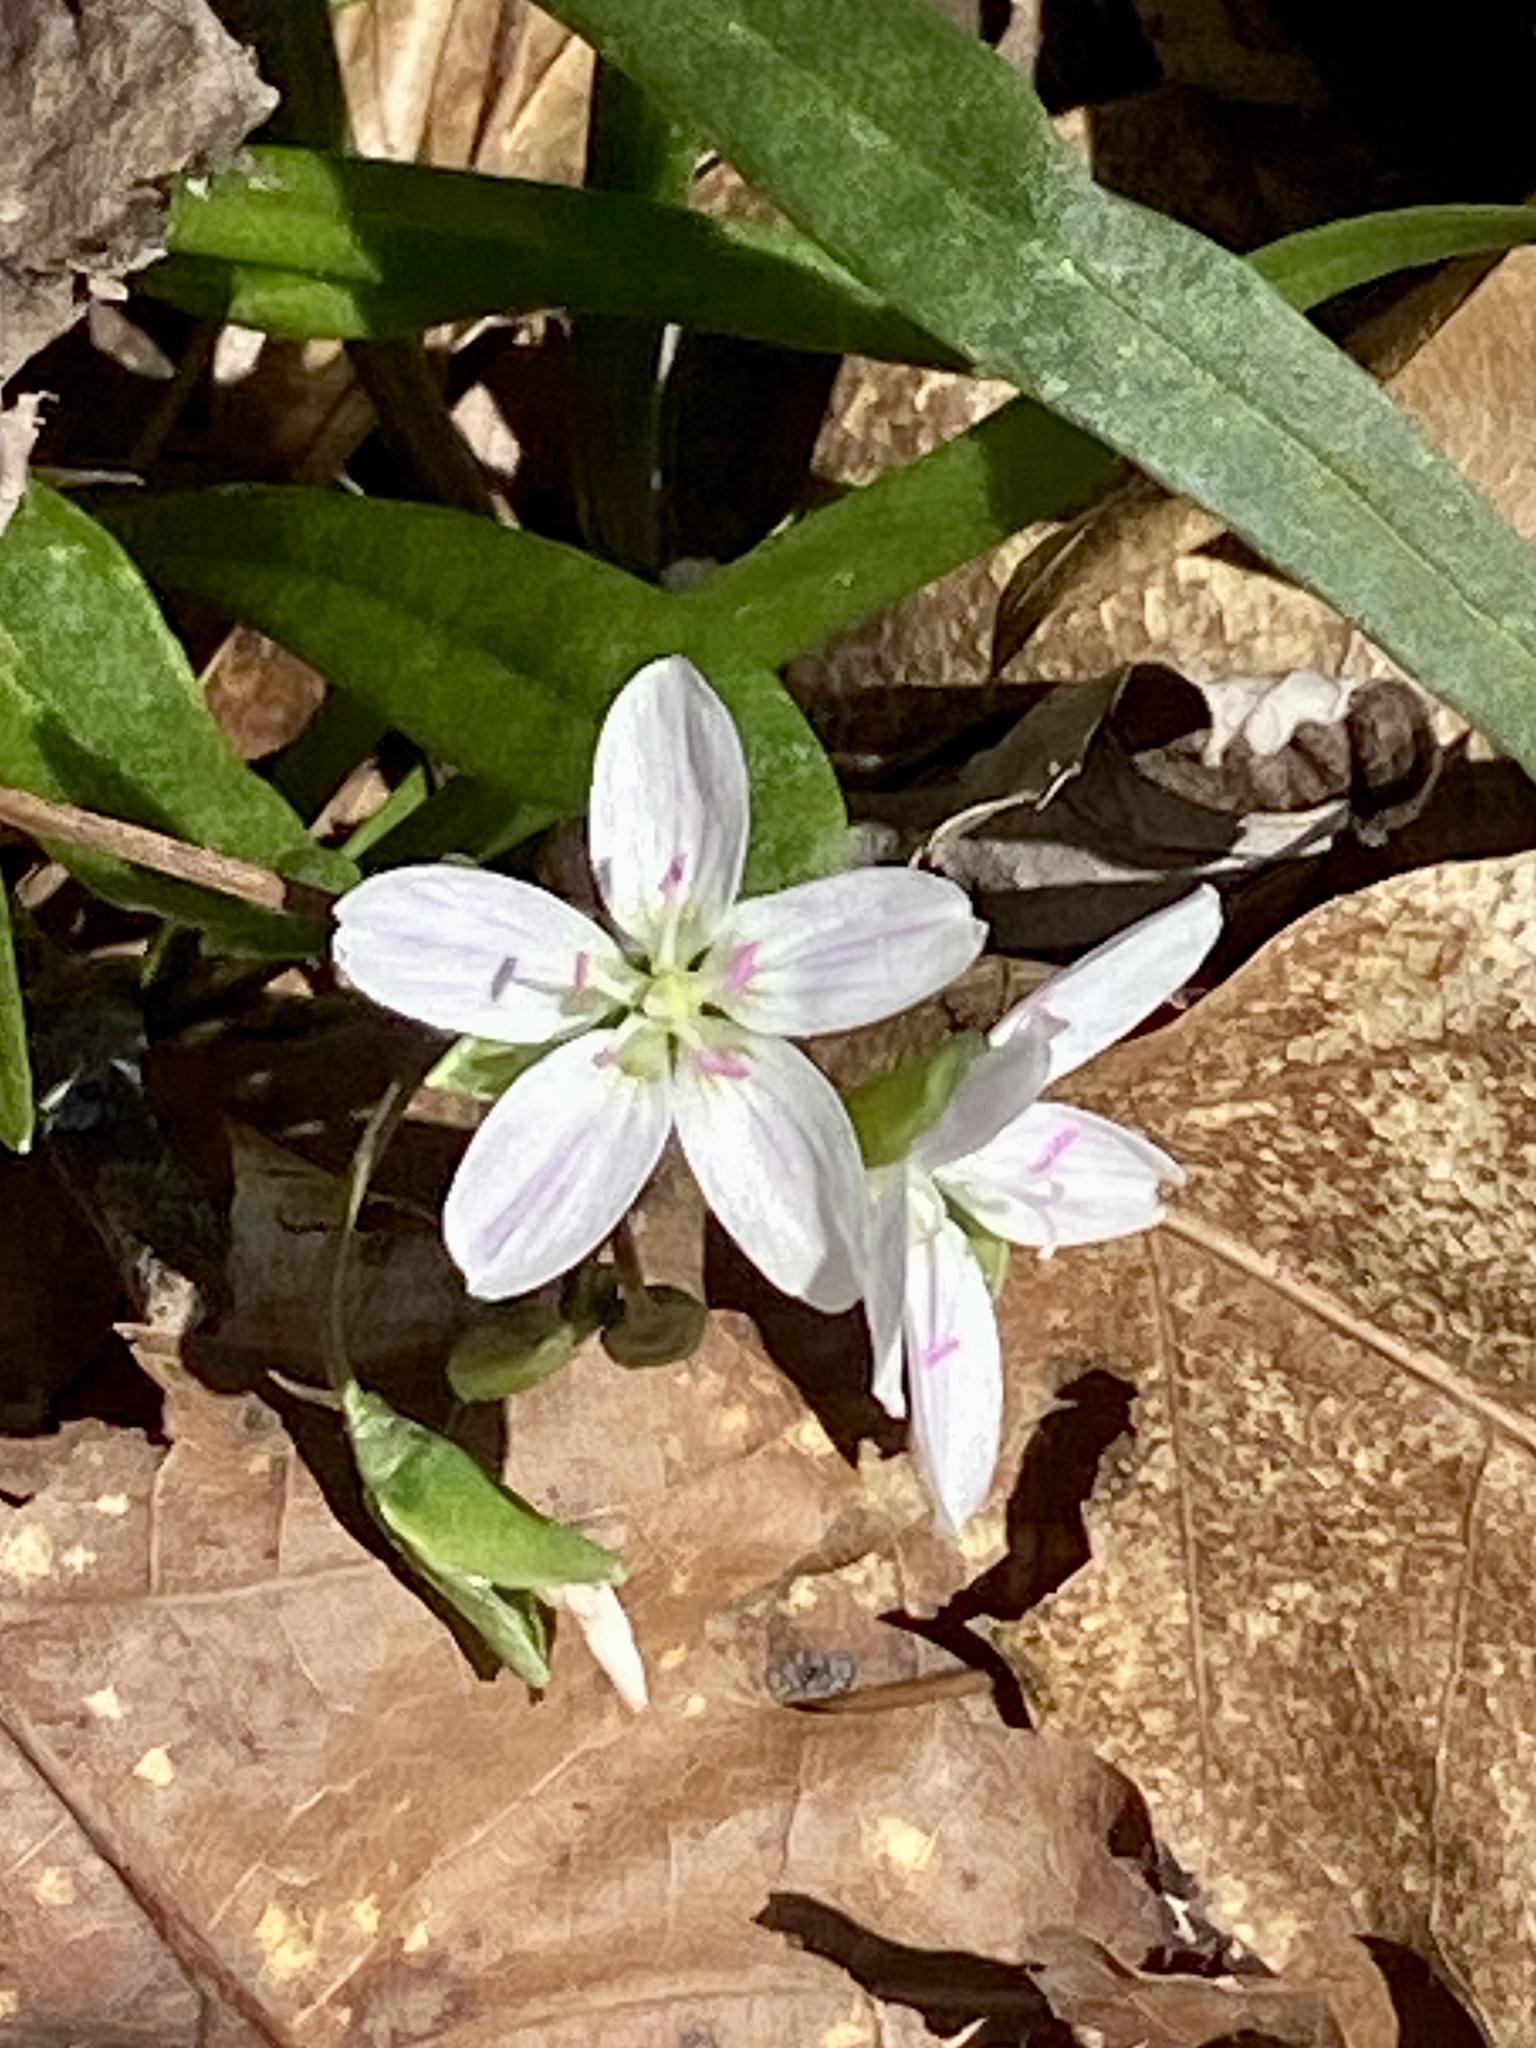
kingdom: Plantae
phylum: Tracheophyta
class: Magnoliopsida
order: Caryophyllales
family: Montiaceae
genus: Claytonia
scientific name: Claytonia virginica
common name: Virginia springbeauty
